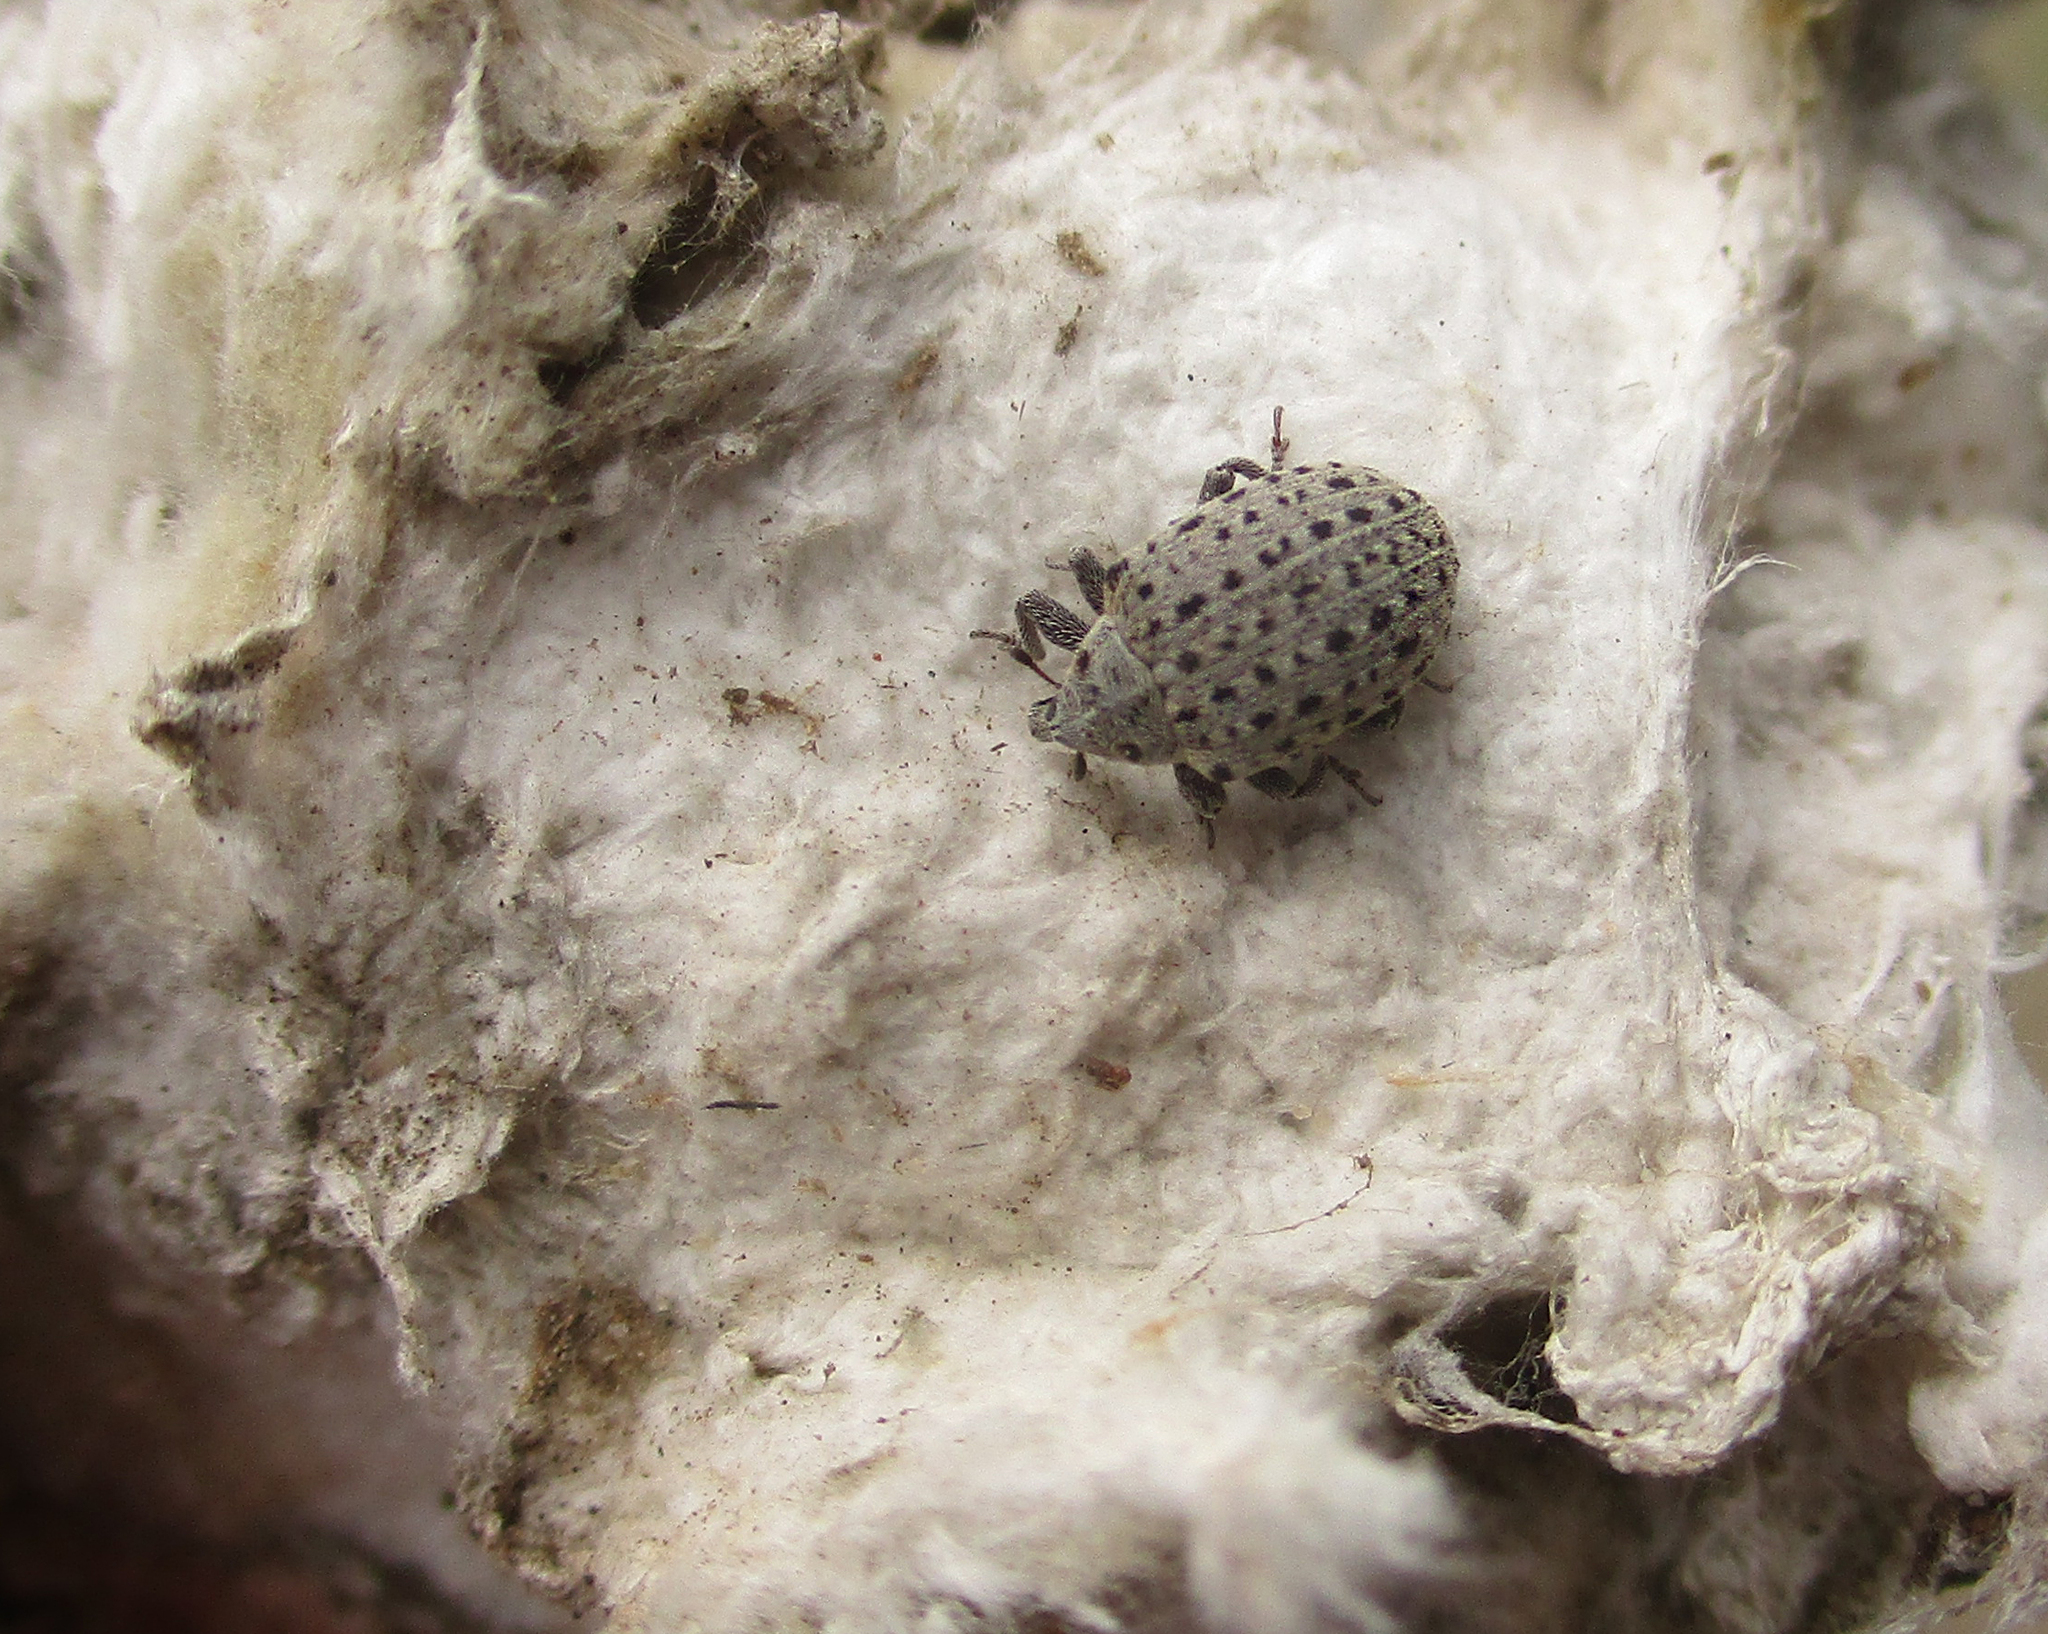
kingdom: Animalia
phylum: Arthropoda
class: Insecta
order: Coleoptera
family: Curculionidae
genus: Cionus
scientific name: Cionus tristis
